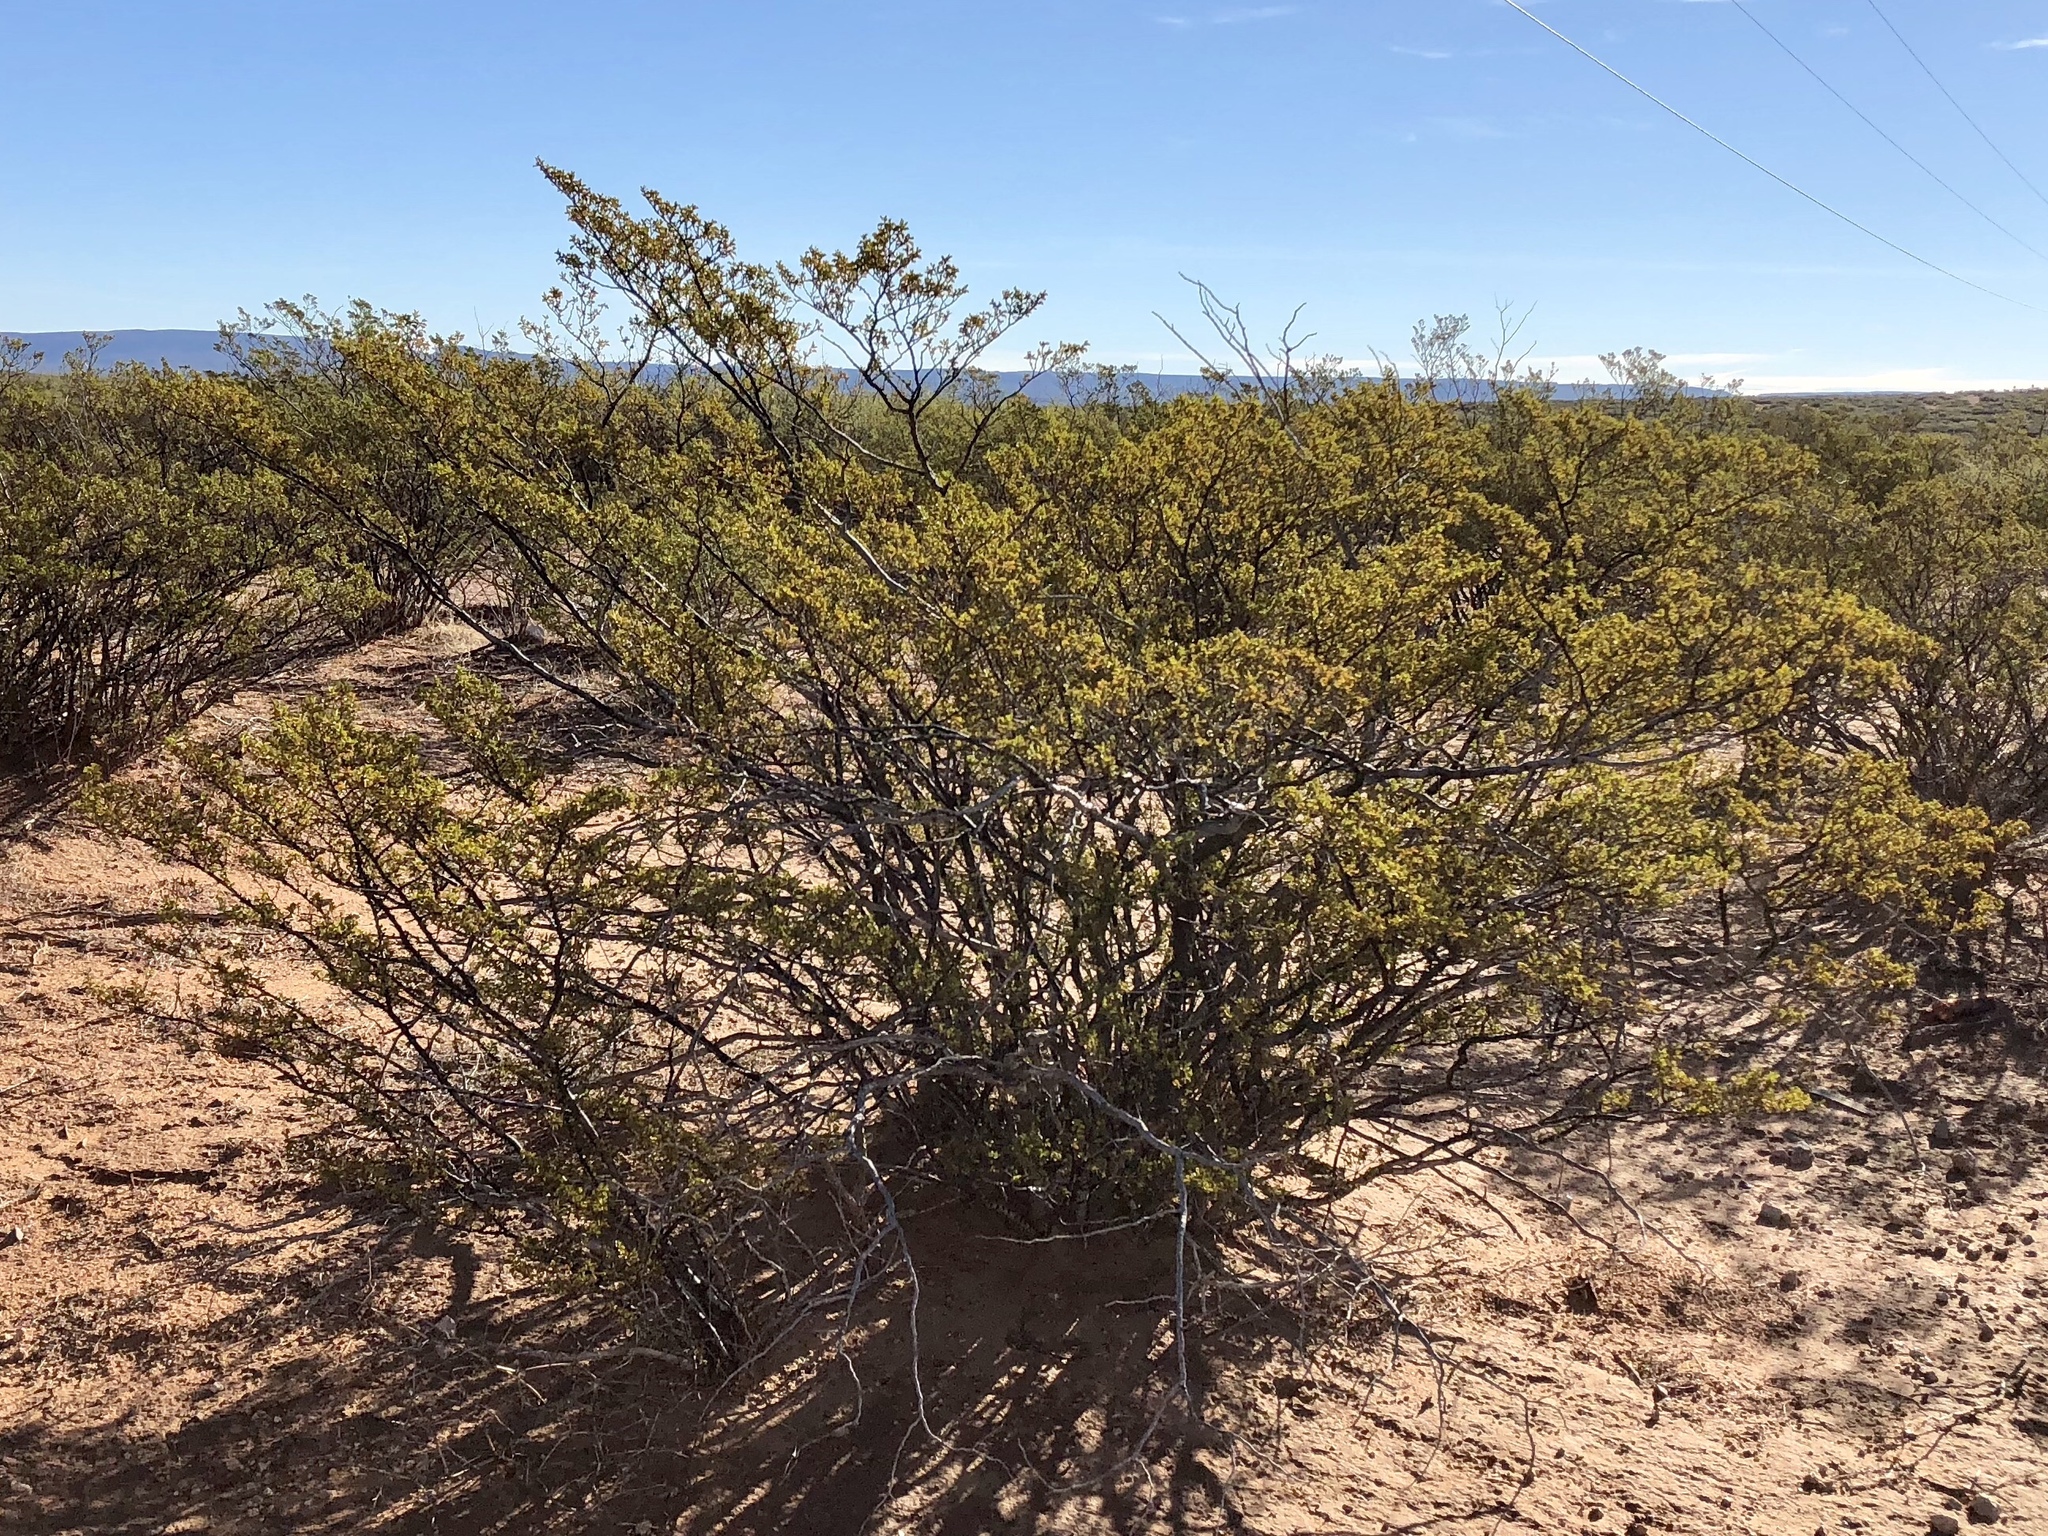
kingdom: Plantae
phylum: Tracheophyta
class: Magnoliopsida
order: Zygophyllales
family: Zygophyllaceae
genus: Larrea
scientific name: Larrea tridentata
